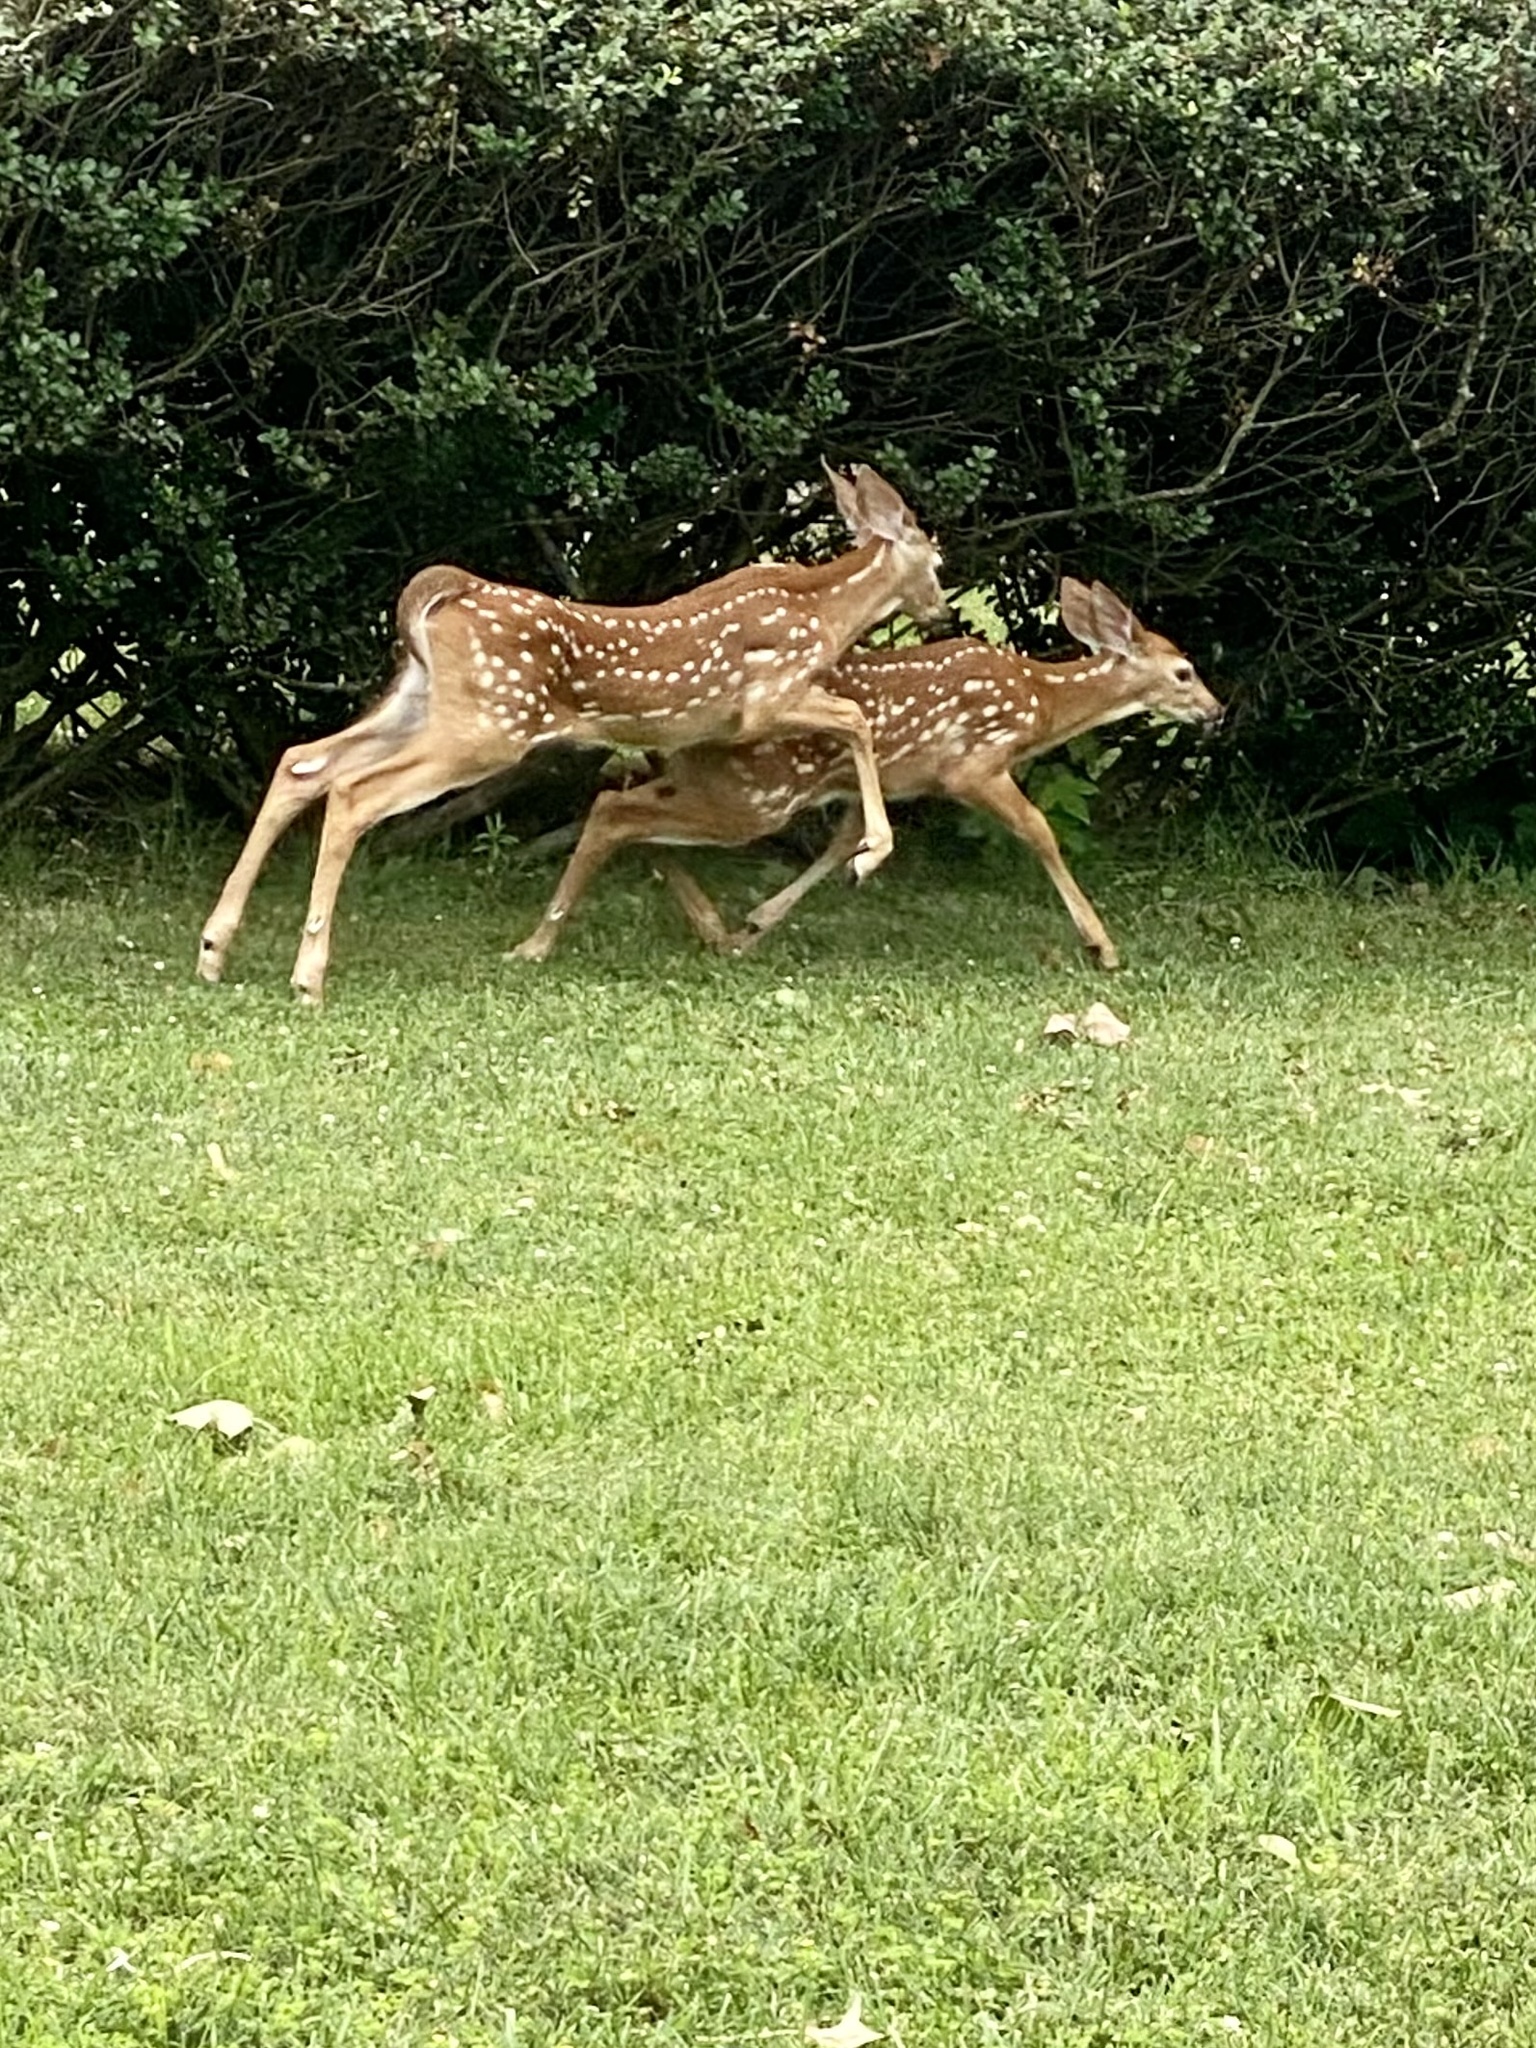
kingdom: Animalia
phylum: Chordata
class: Mammalia
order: Artiodactyla
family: Cervidae
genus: Odocoileus
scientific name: Odocoileus virginianus
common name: White-tailed deer
